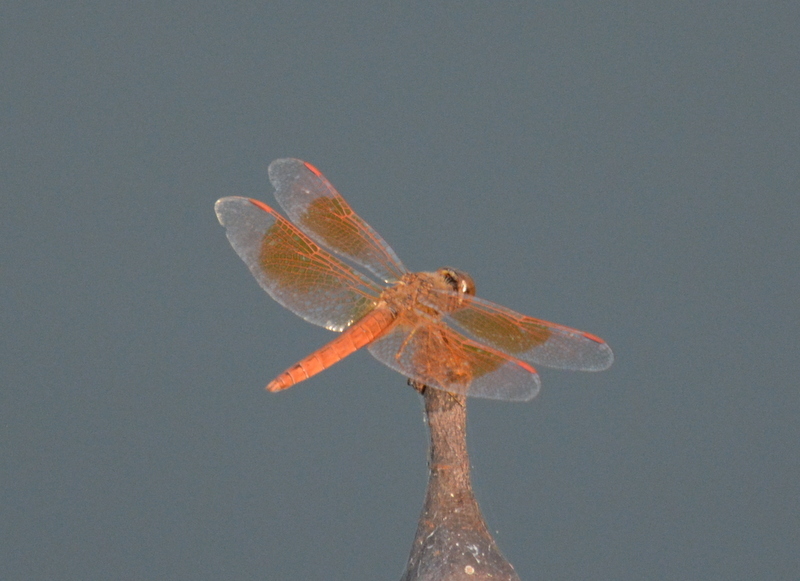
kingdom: Animalia
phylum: Arthropoda
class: Insecta
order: Odonata
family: Libellulidae
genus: Brachythemis
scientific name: Brachythemis contaminata
